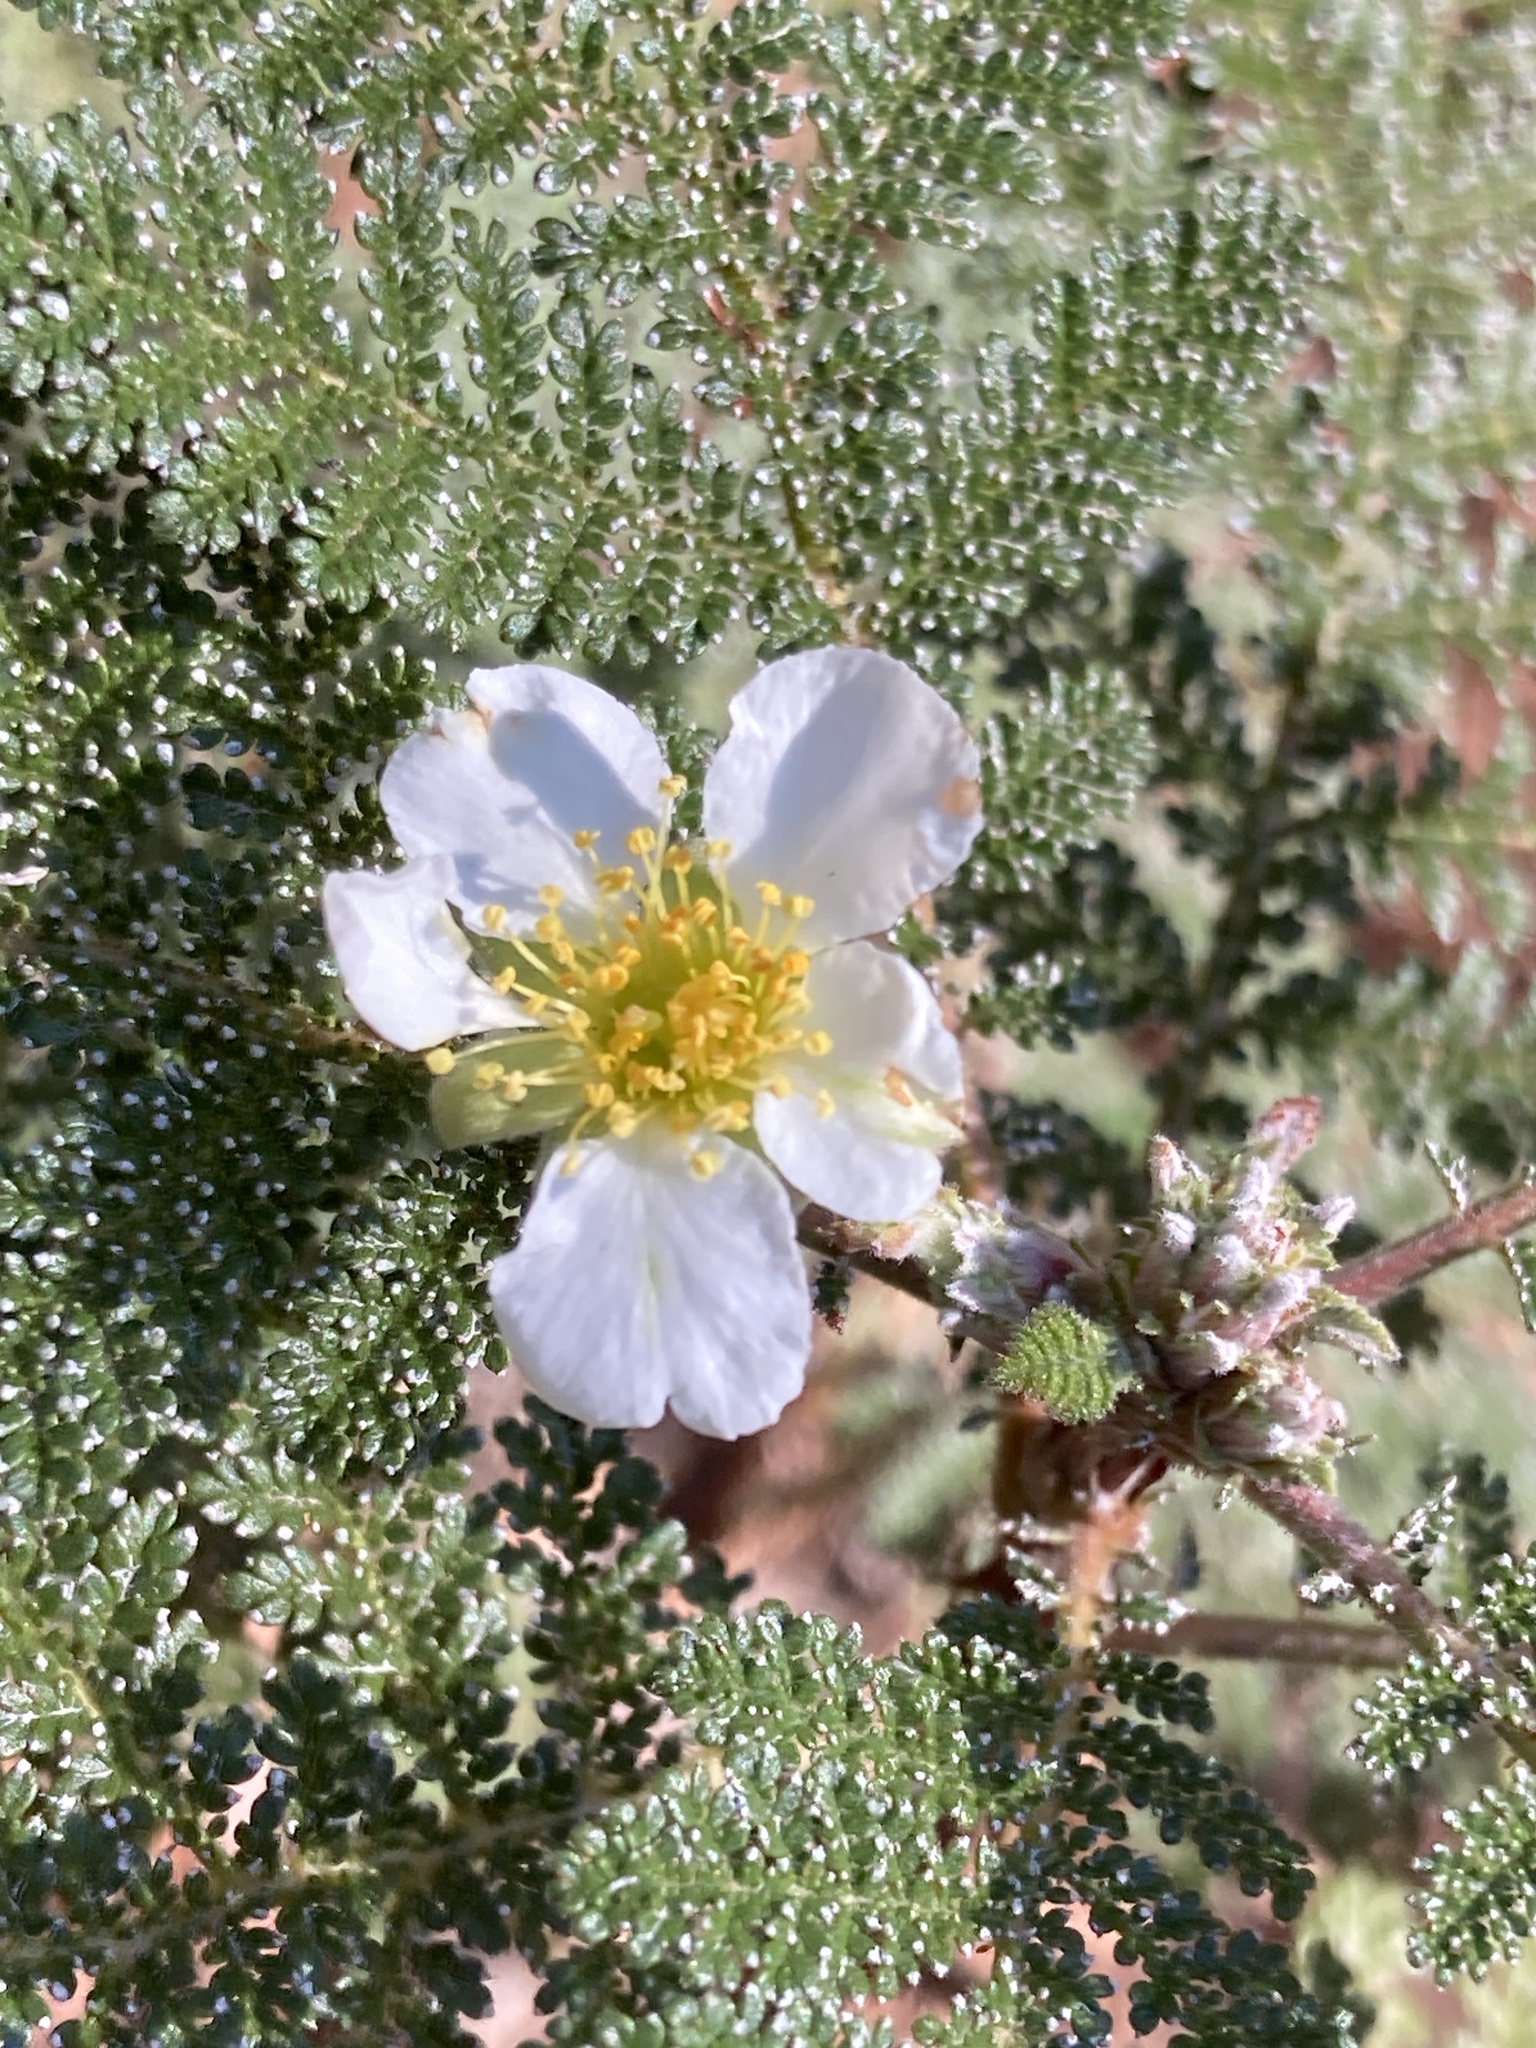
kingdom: Plantae
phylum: Tracheophyta
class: Magnoliopsida
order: Rosales
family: Rosaceae
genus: Chamaebatia
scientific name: Chamaebatia foliolosa
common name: Mountain misery
